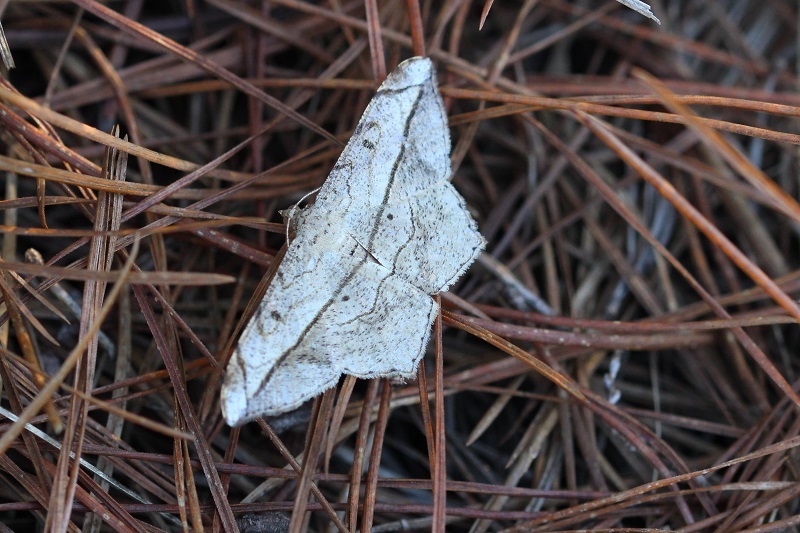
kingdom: Animalia
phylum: Arthropoda
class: Insecta
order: Lepidoptera
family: Geometridae
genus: Chiasmia
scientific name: Chiasmia simplicilinea
